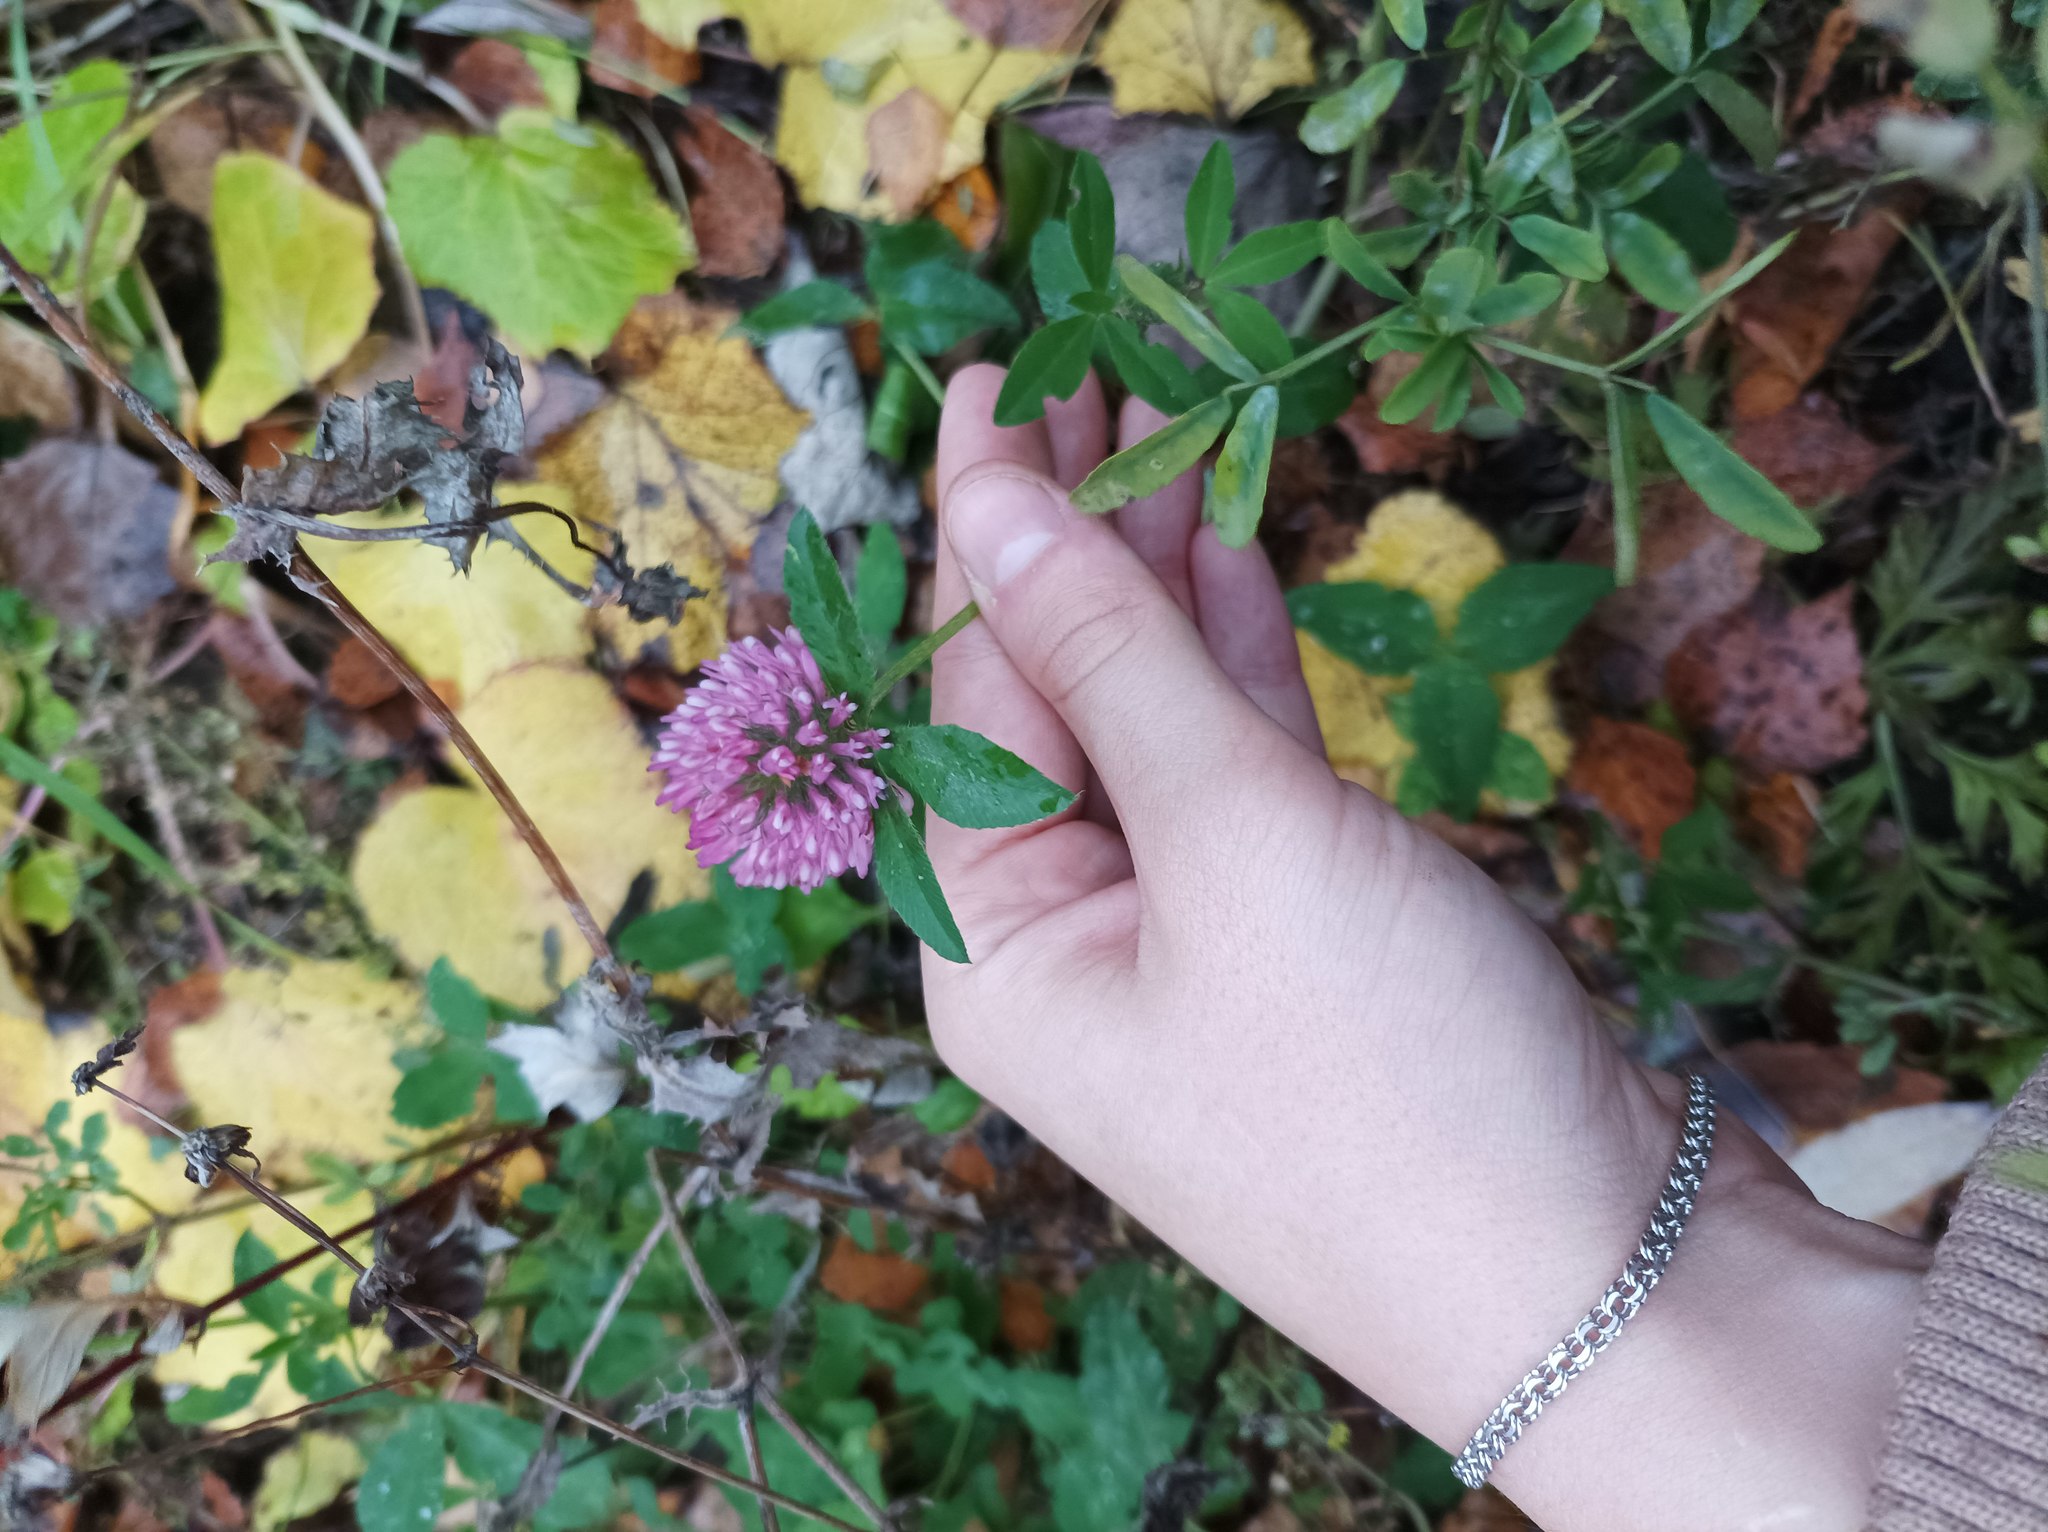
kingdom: Plantae
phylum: Tracheophyta
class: Magnoliopsida
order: Fabales
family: Fabaceae
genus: Trifolium
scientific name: Trifolium pratense
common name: Red clover
